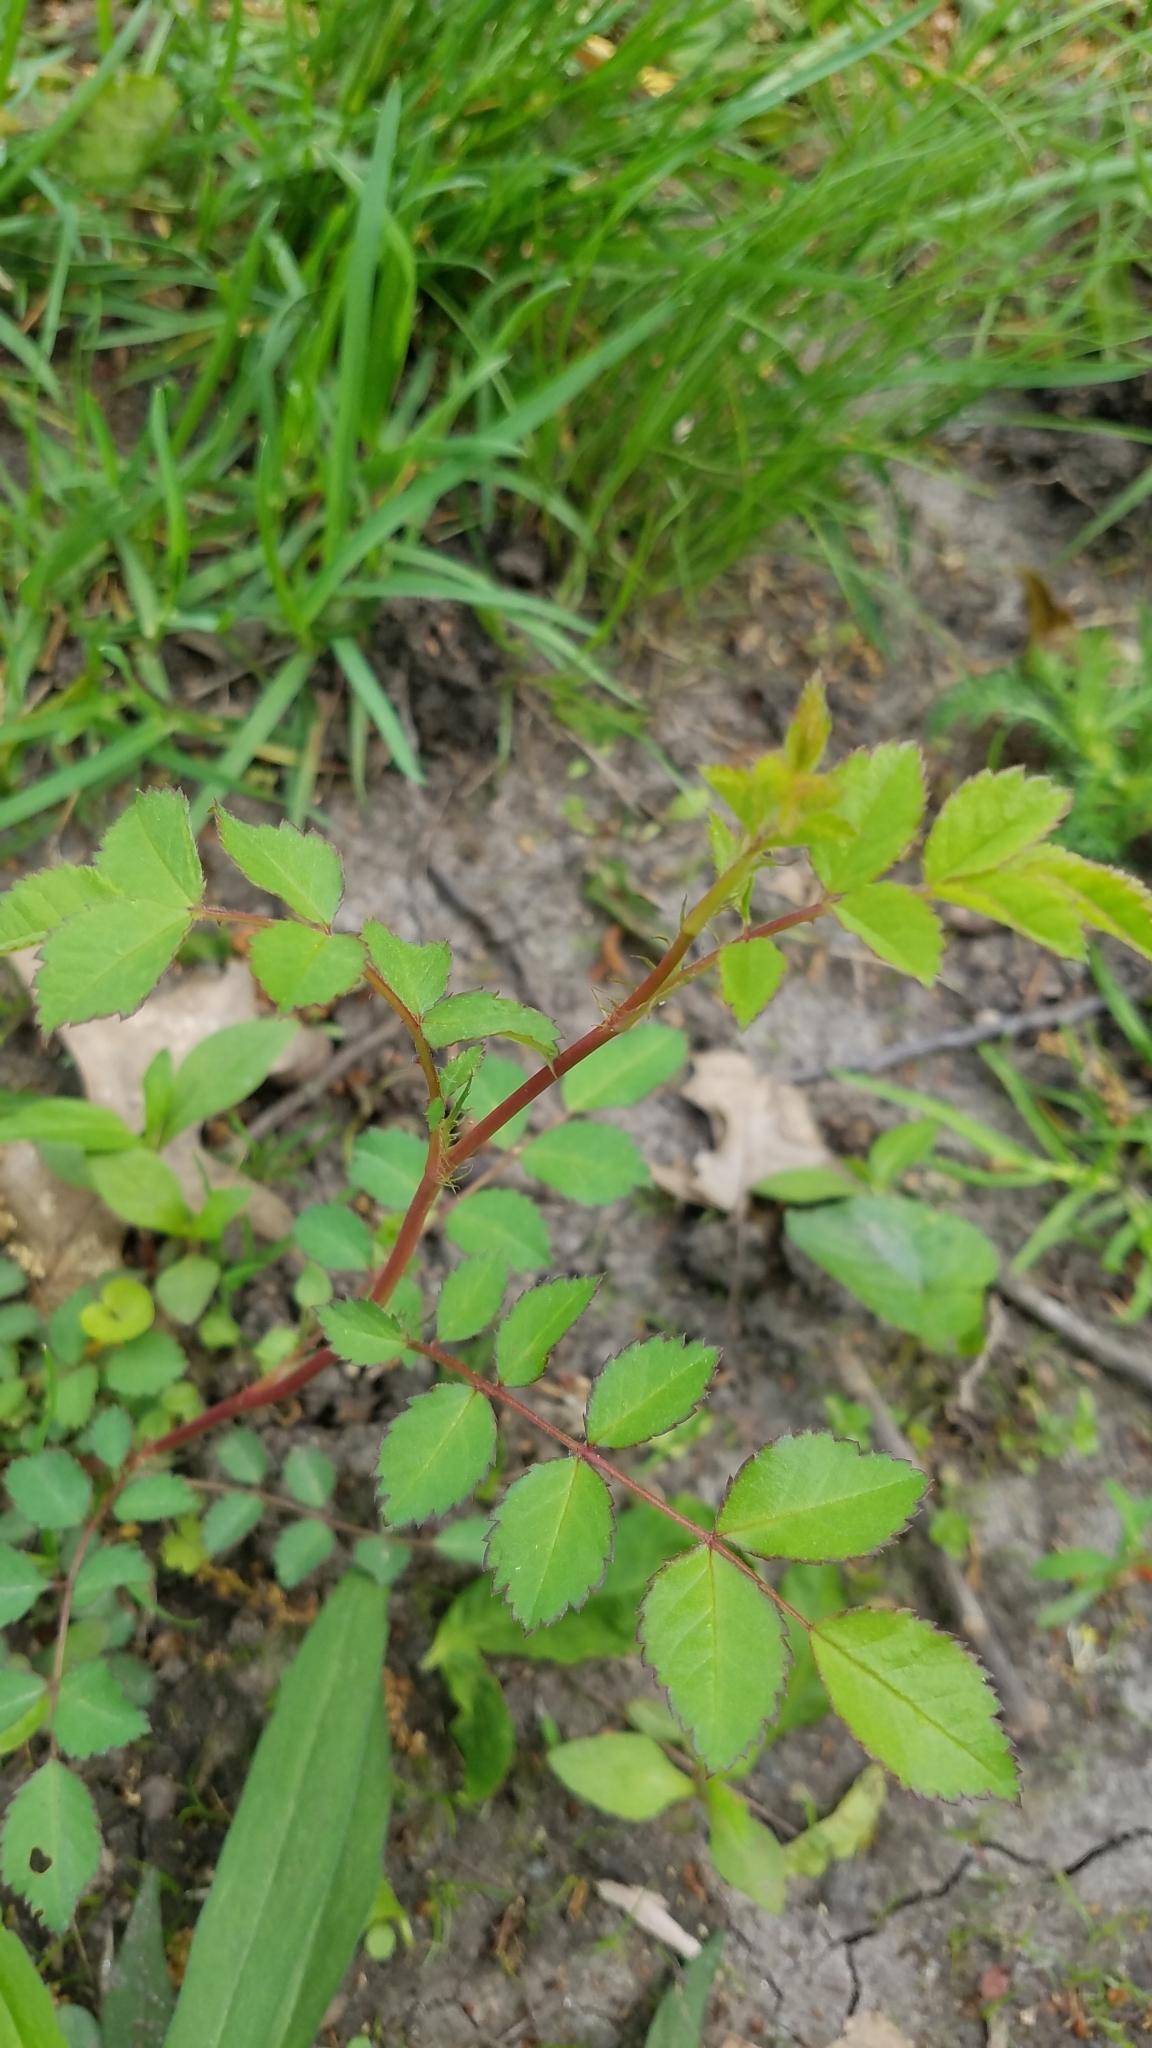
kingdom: Plantae
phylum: Tracheophyta
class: Magnoliopsida
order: Rosales
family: Rosaceae
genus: Rosa
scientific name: Rosa multiflora
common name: Multiflora rose
